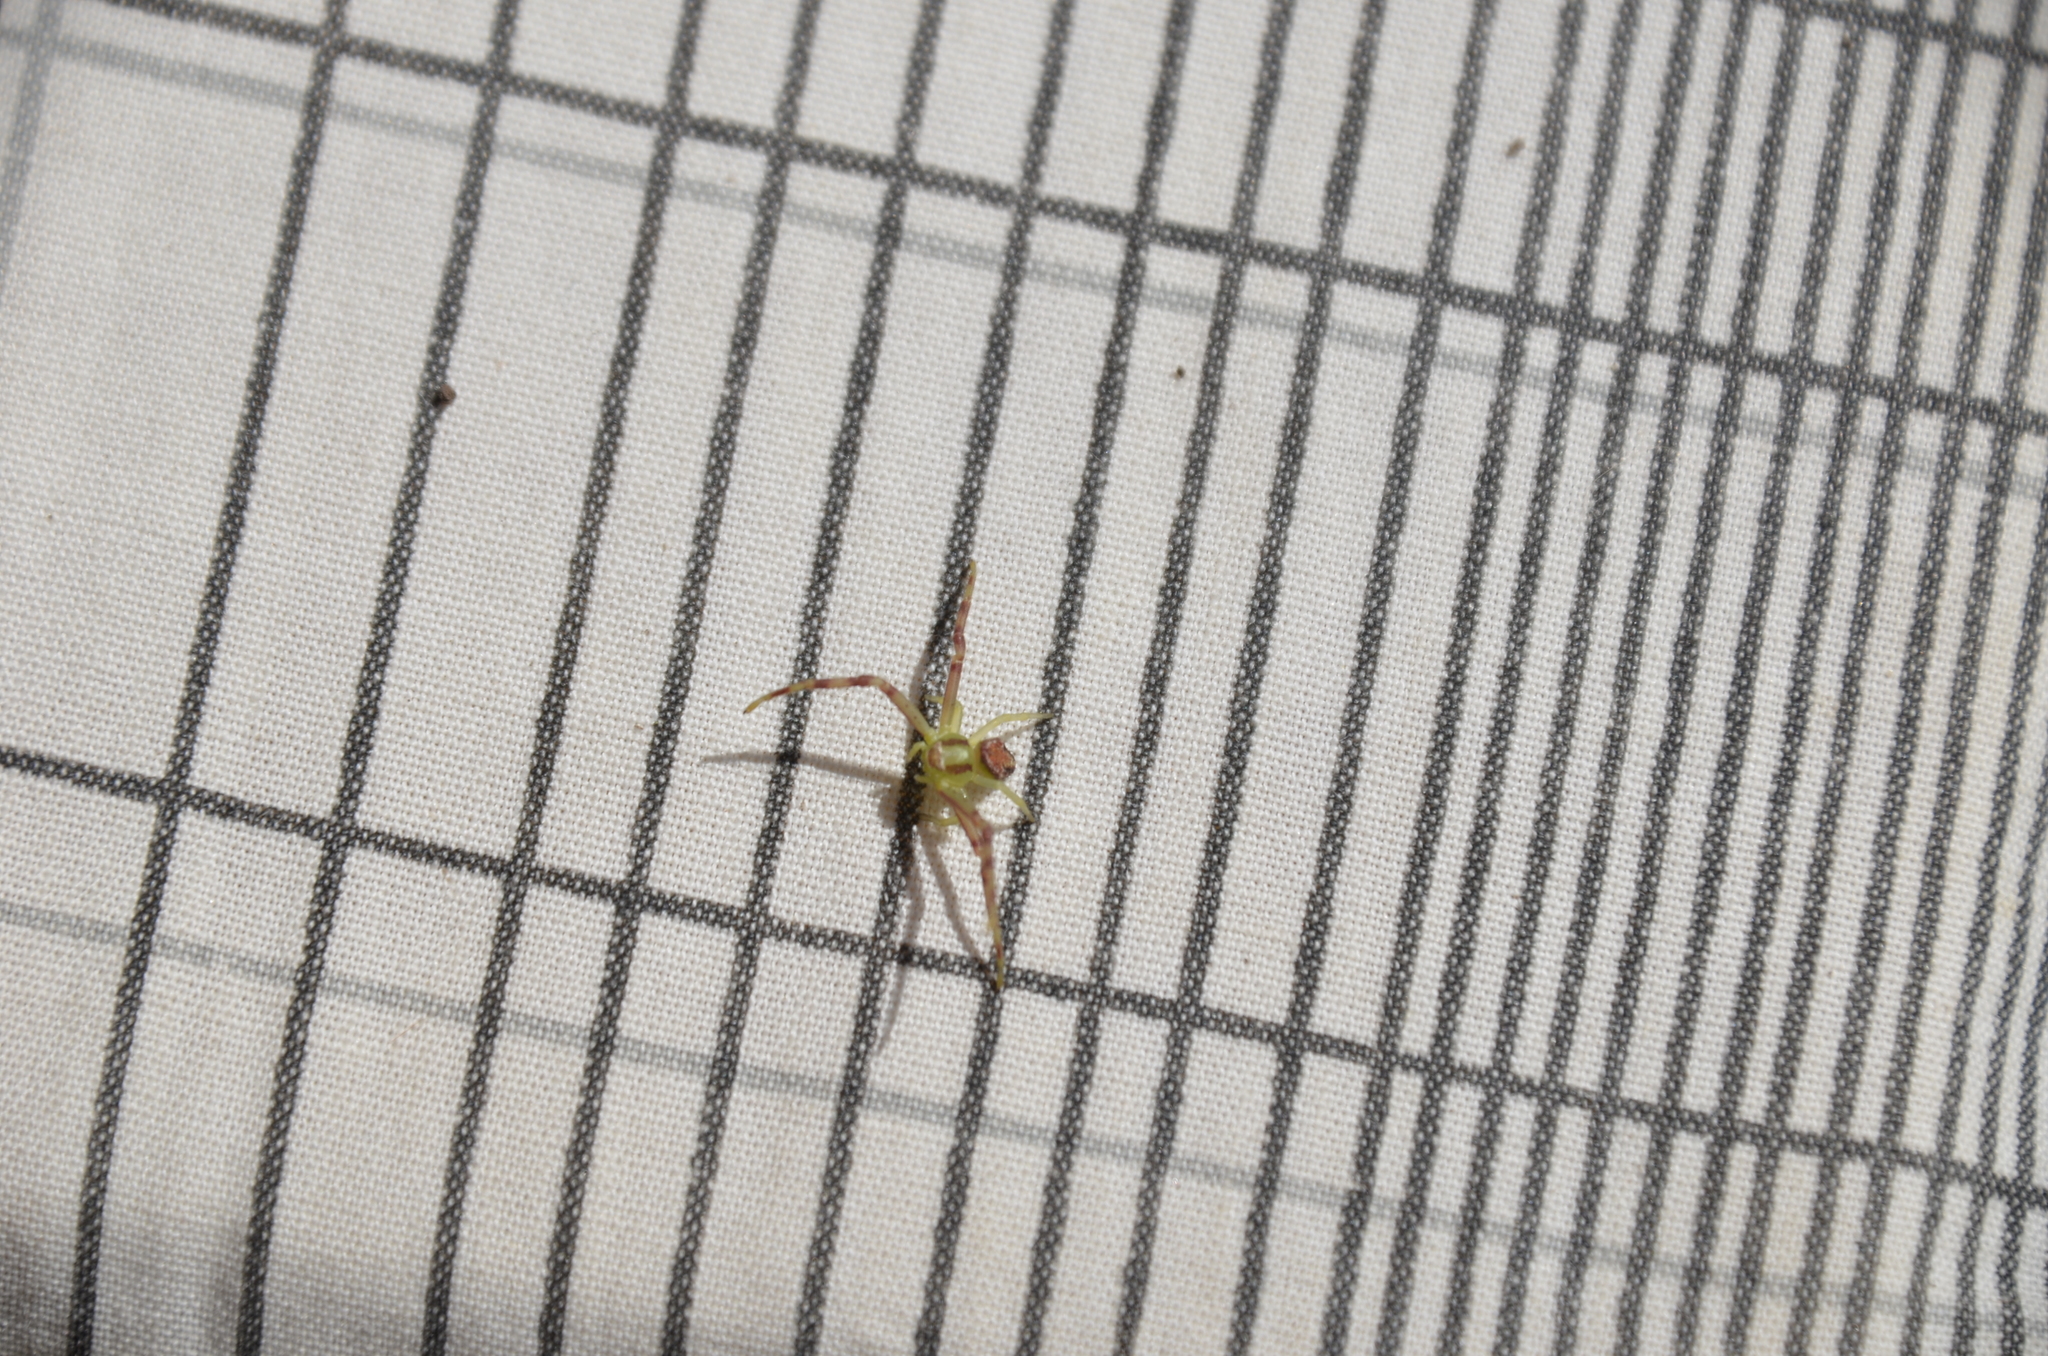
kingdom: Animalia
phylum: Arthropoda
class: Arachnida
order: Araneae
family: Thomisidae
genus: Misumenops
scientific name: Misumenops
